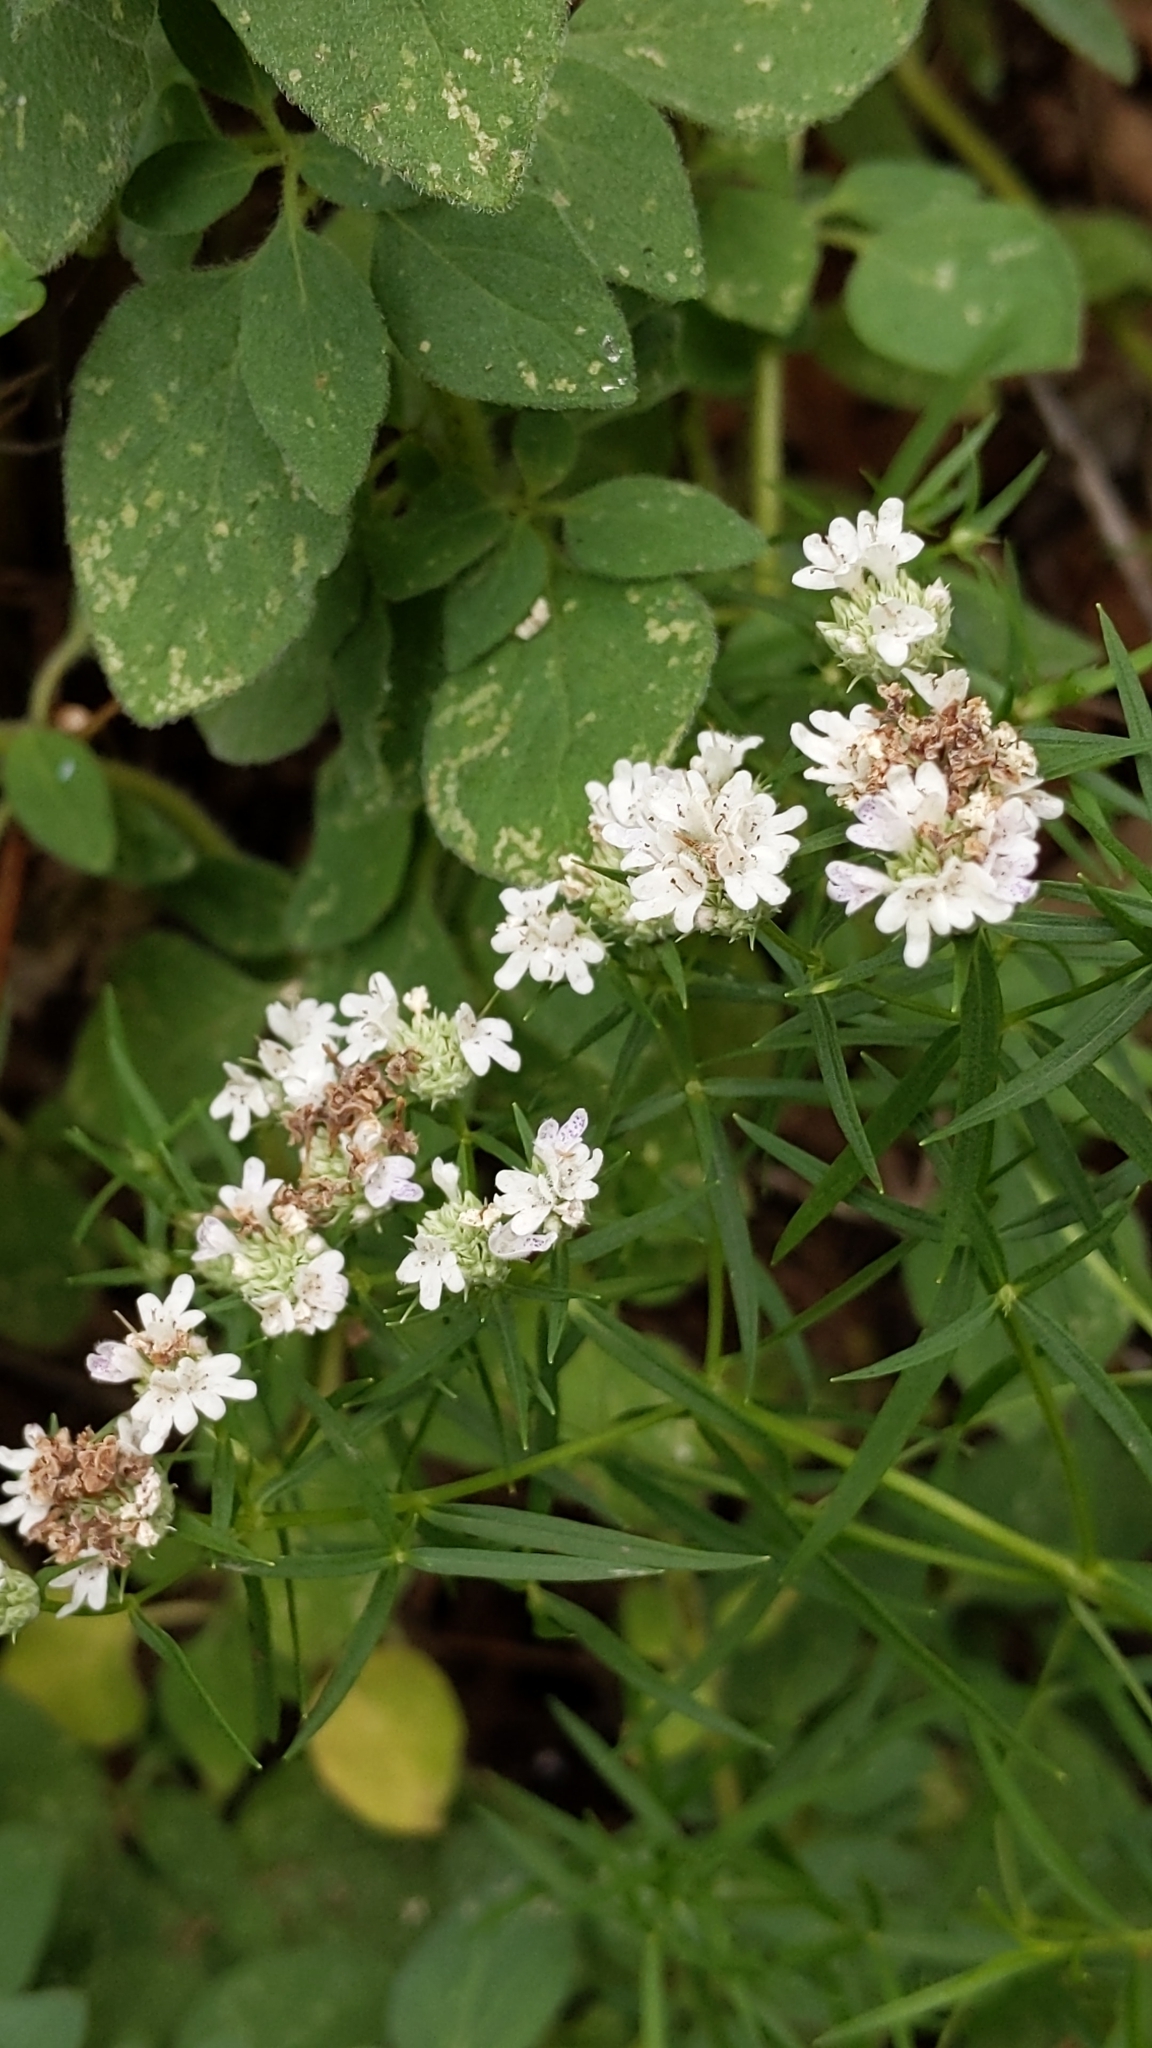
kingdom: Plantae
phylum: Tracheophyta
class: Magnoliopsida
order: Lamiales
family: Lamiaceae
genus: Pycnanthemum
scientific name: Pycnanthemum tenuifolium
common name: Narrow-leaf mountain-mint
